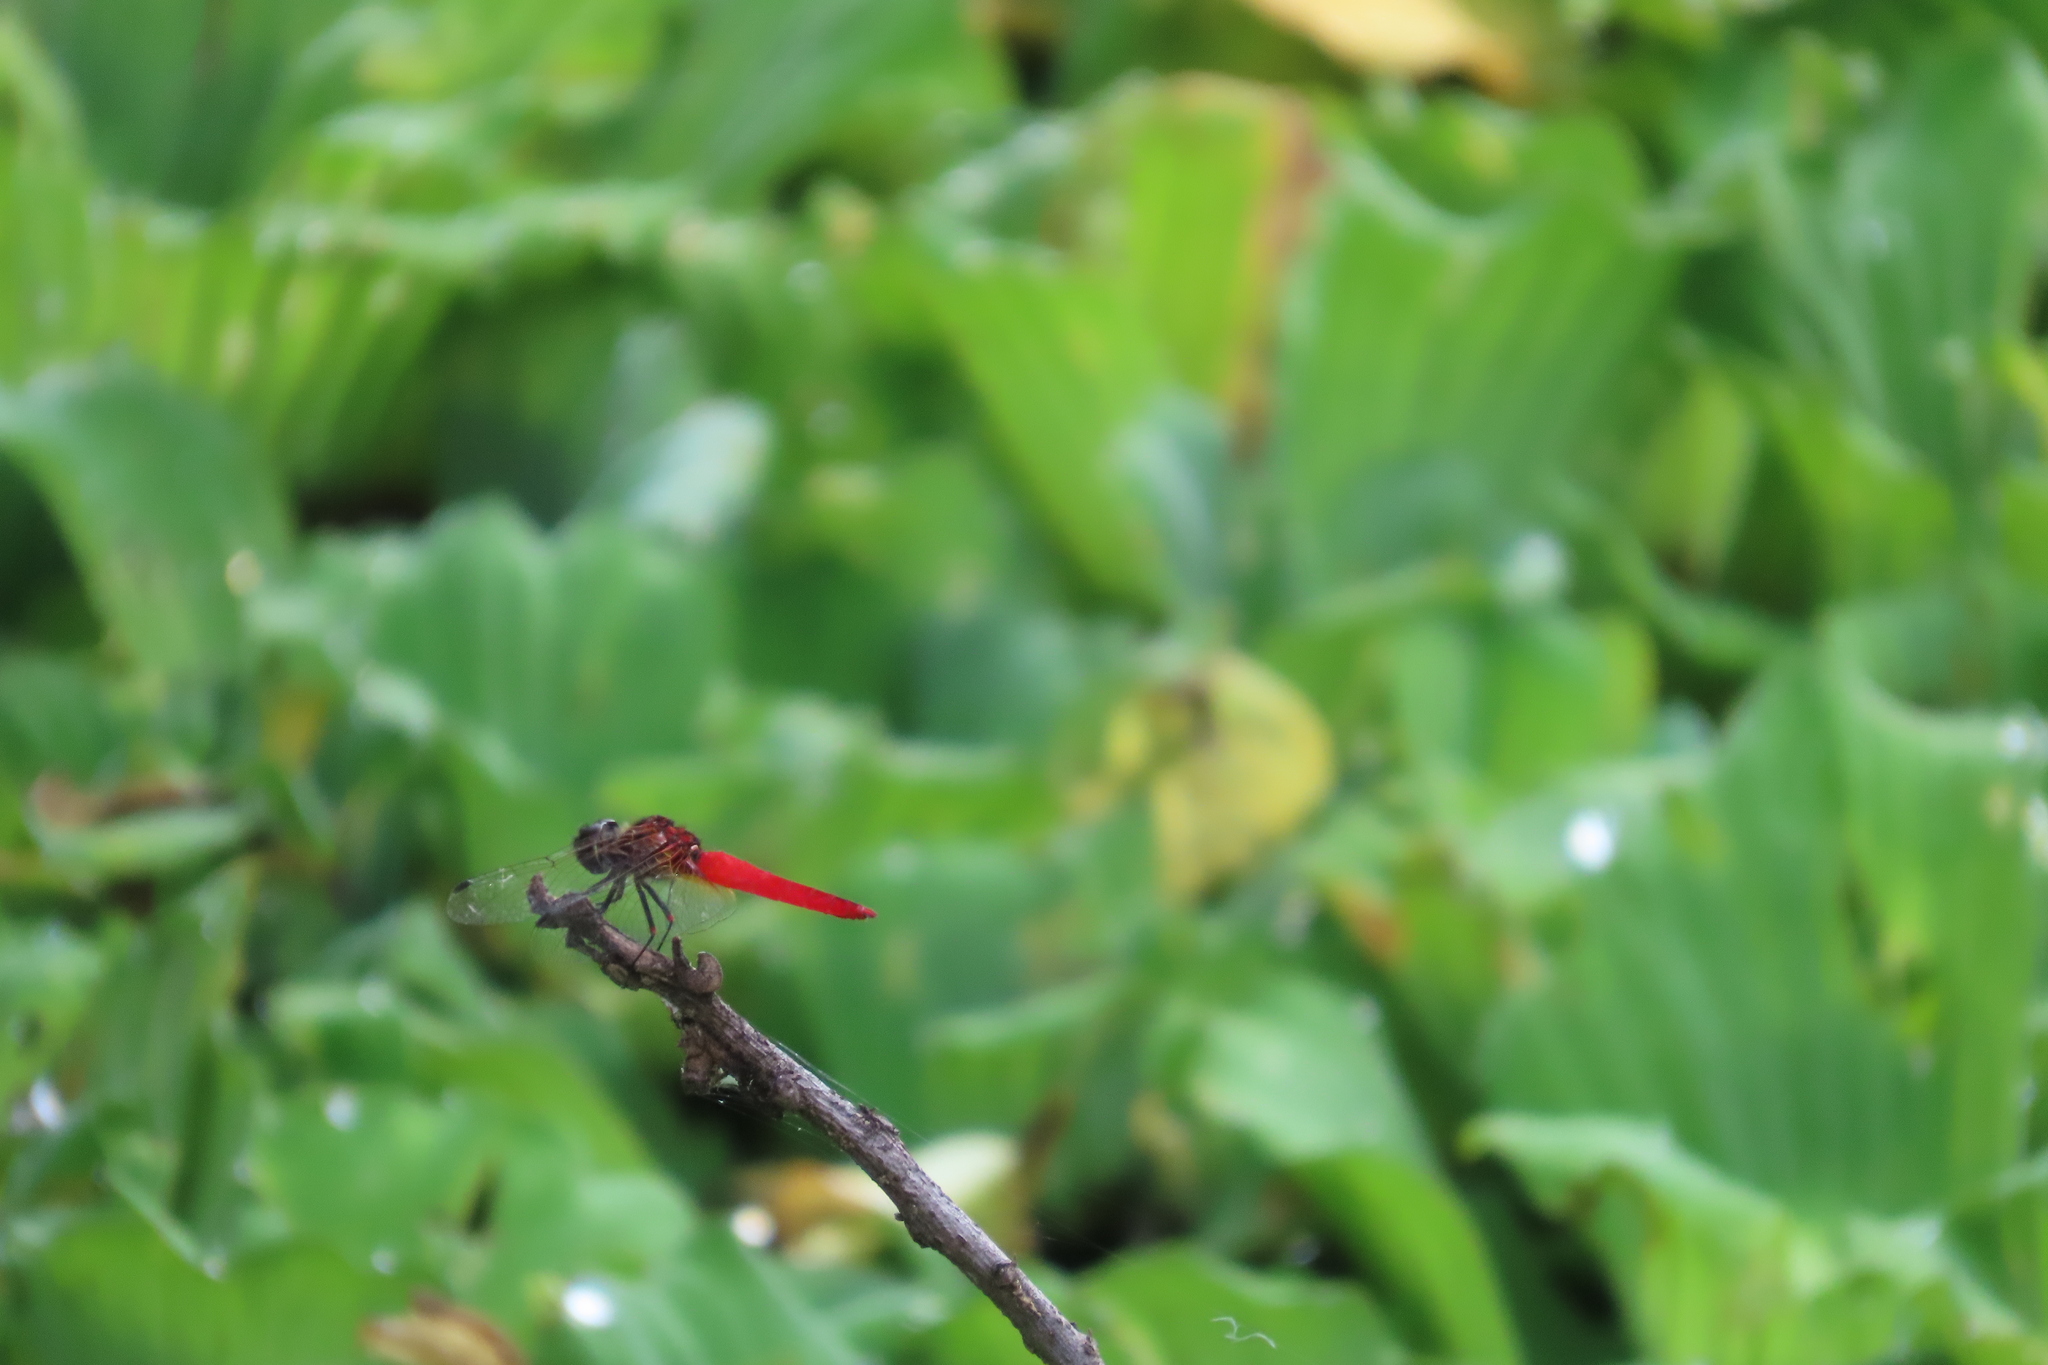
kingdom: Animalia
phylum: Arthropoda
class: Insecta
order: Odonata
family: Libellulidae
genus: Aethriamanta
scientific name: Aethriamanta brevipennis
